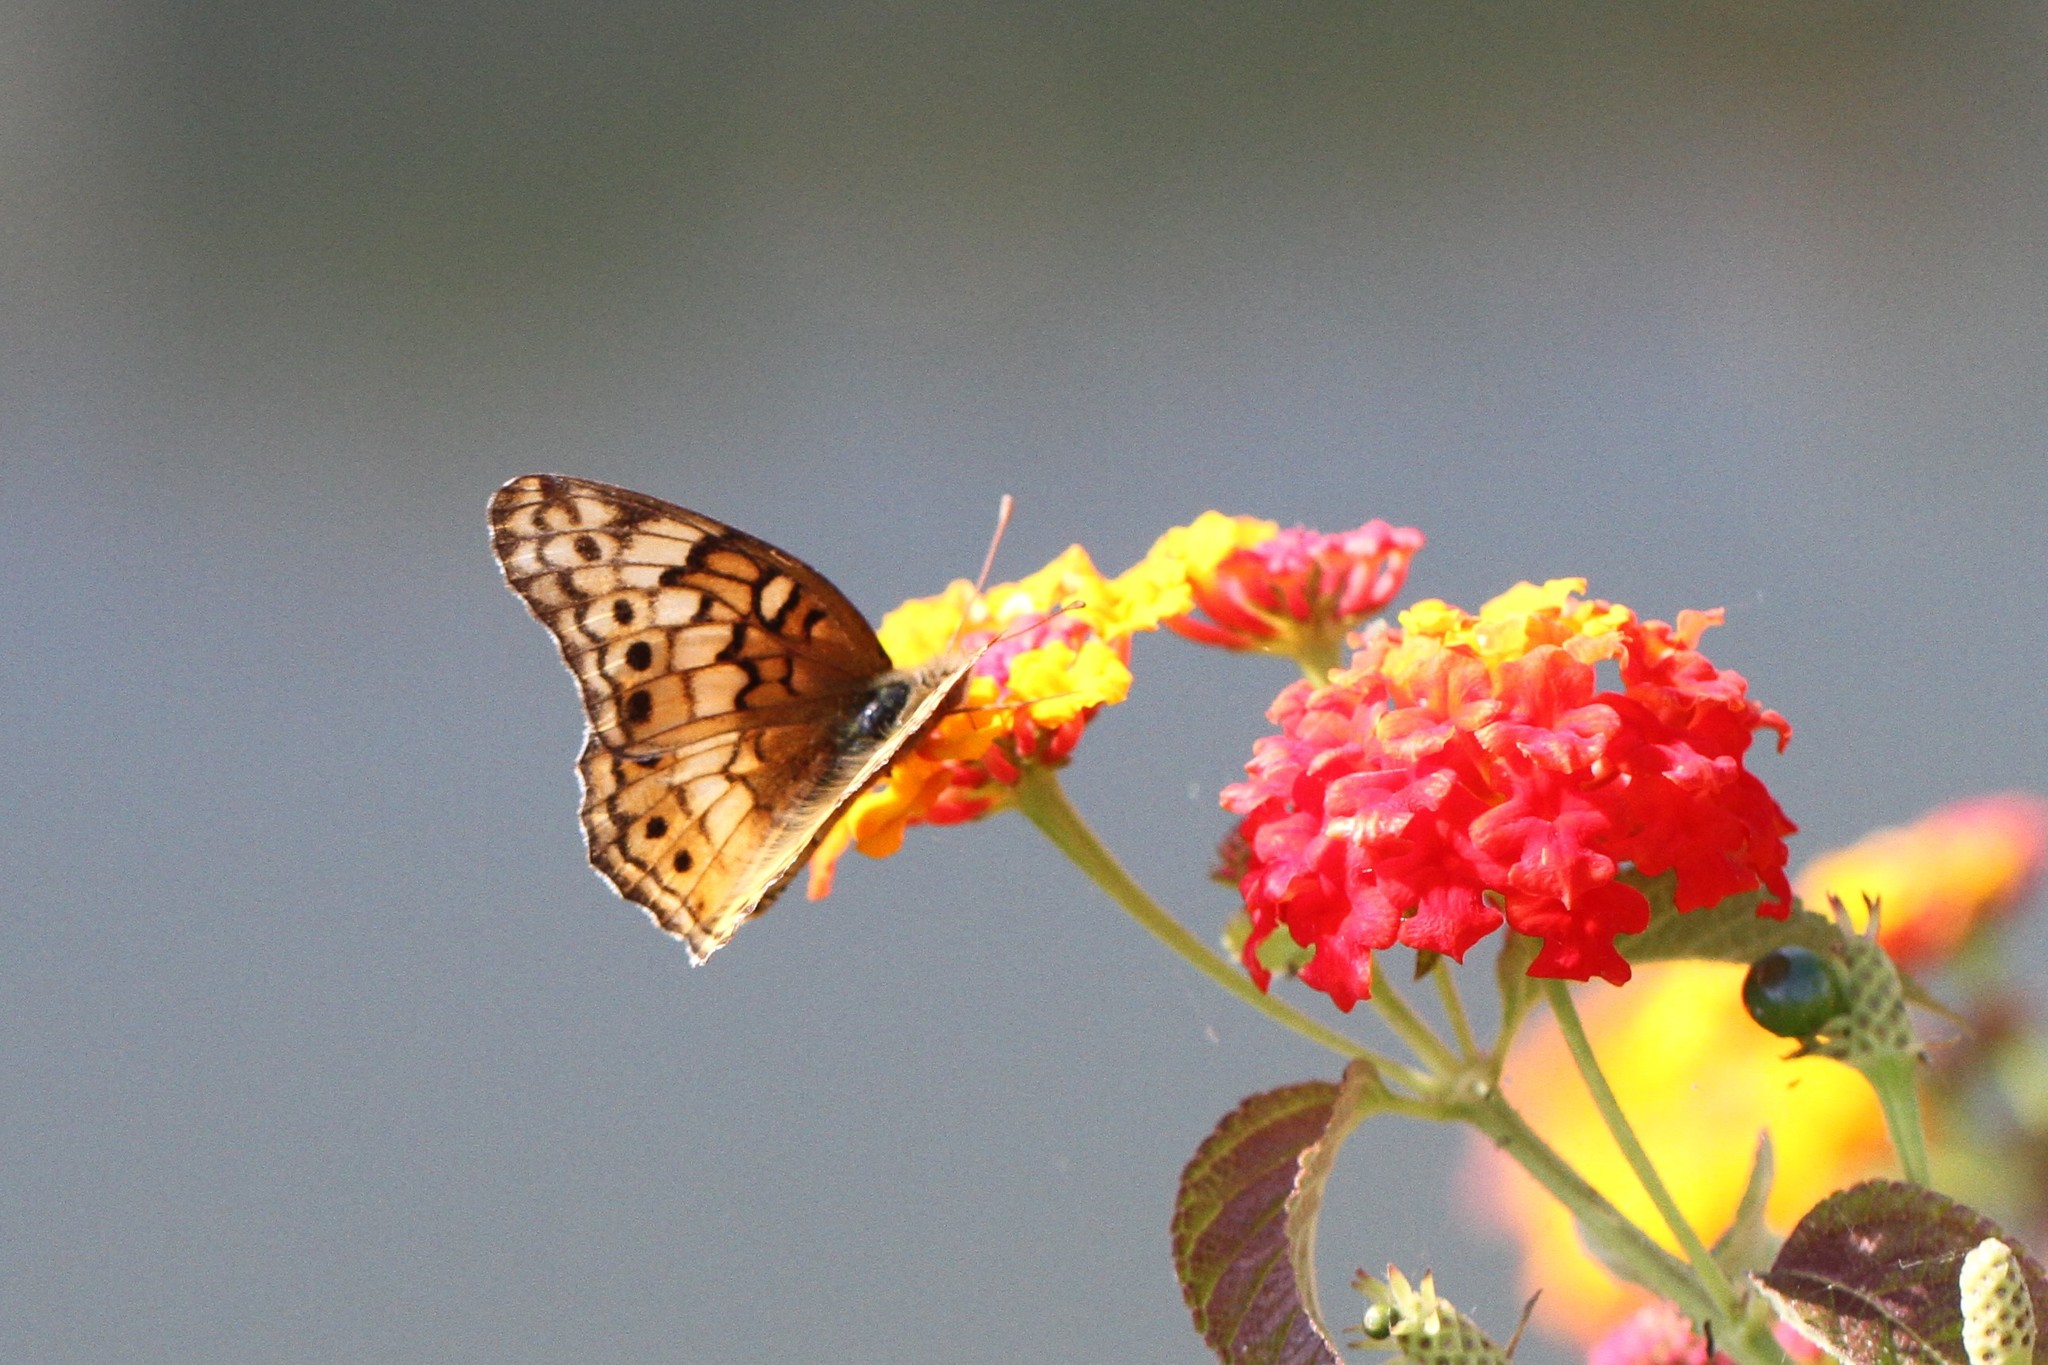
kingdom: Animalia
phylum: Arthropoda
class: Insecta
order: Lepidoptera
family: Nymphalidae
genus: Euptoieta
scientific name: Euptoieta claudia
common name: Variegated fritillary
